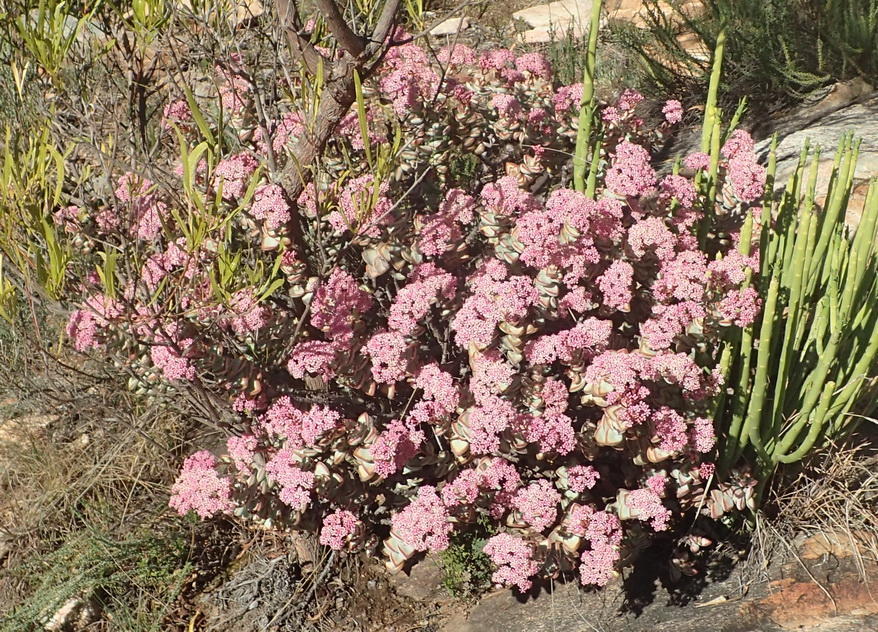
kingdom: Plantae
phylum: Tracheophyta
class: Magnoliopsida
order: Saxifragales
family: Crassulaceae
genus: Crassula
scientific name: Crassula rupestris
